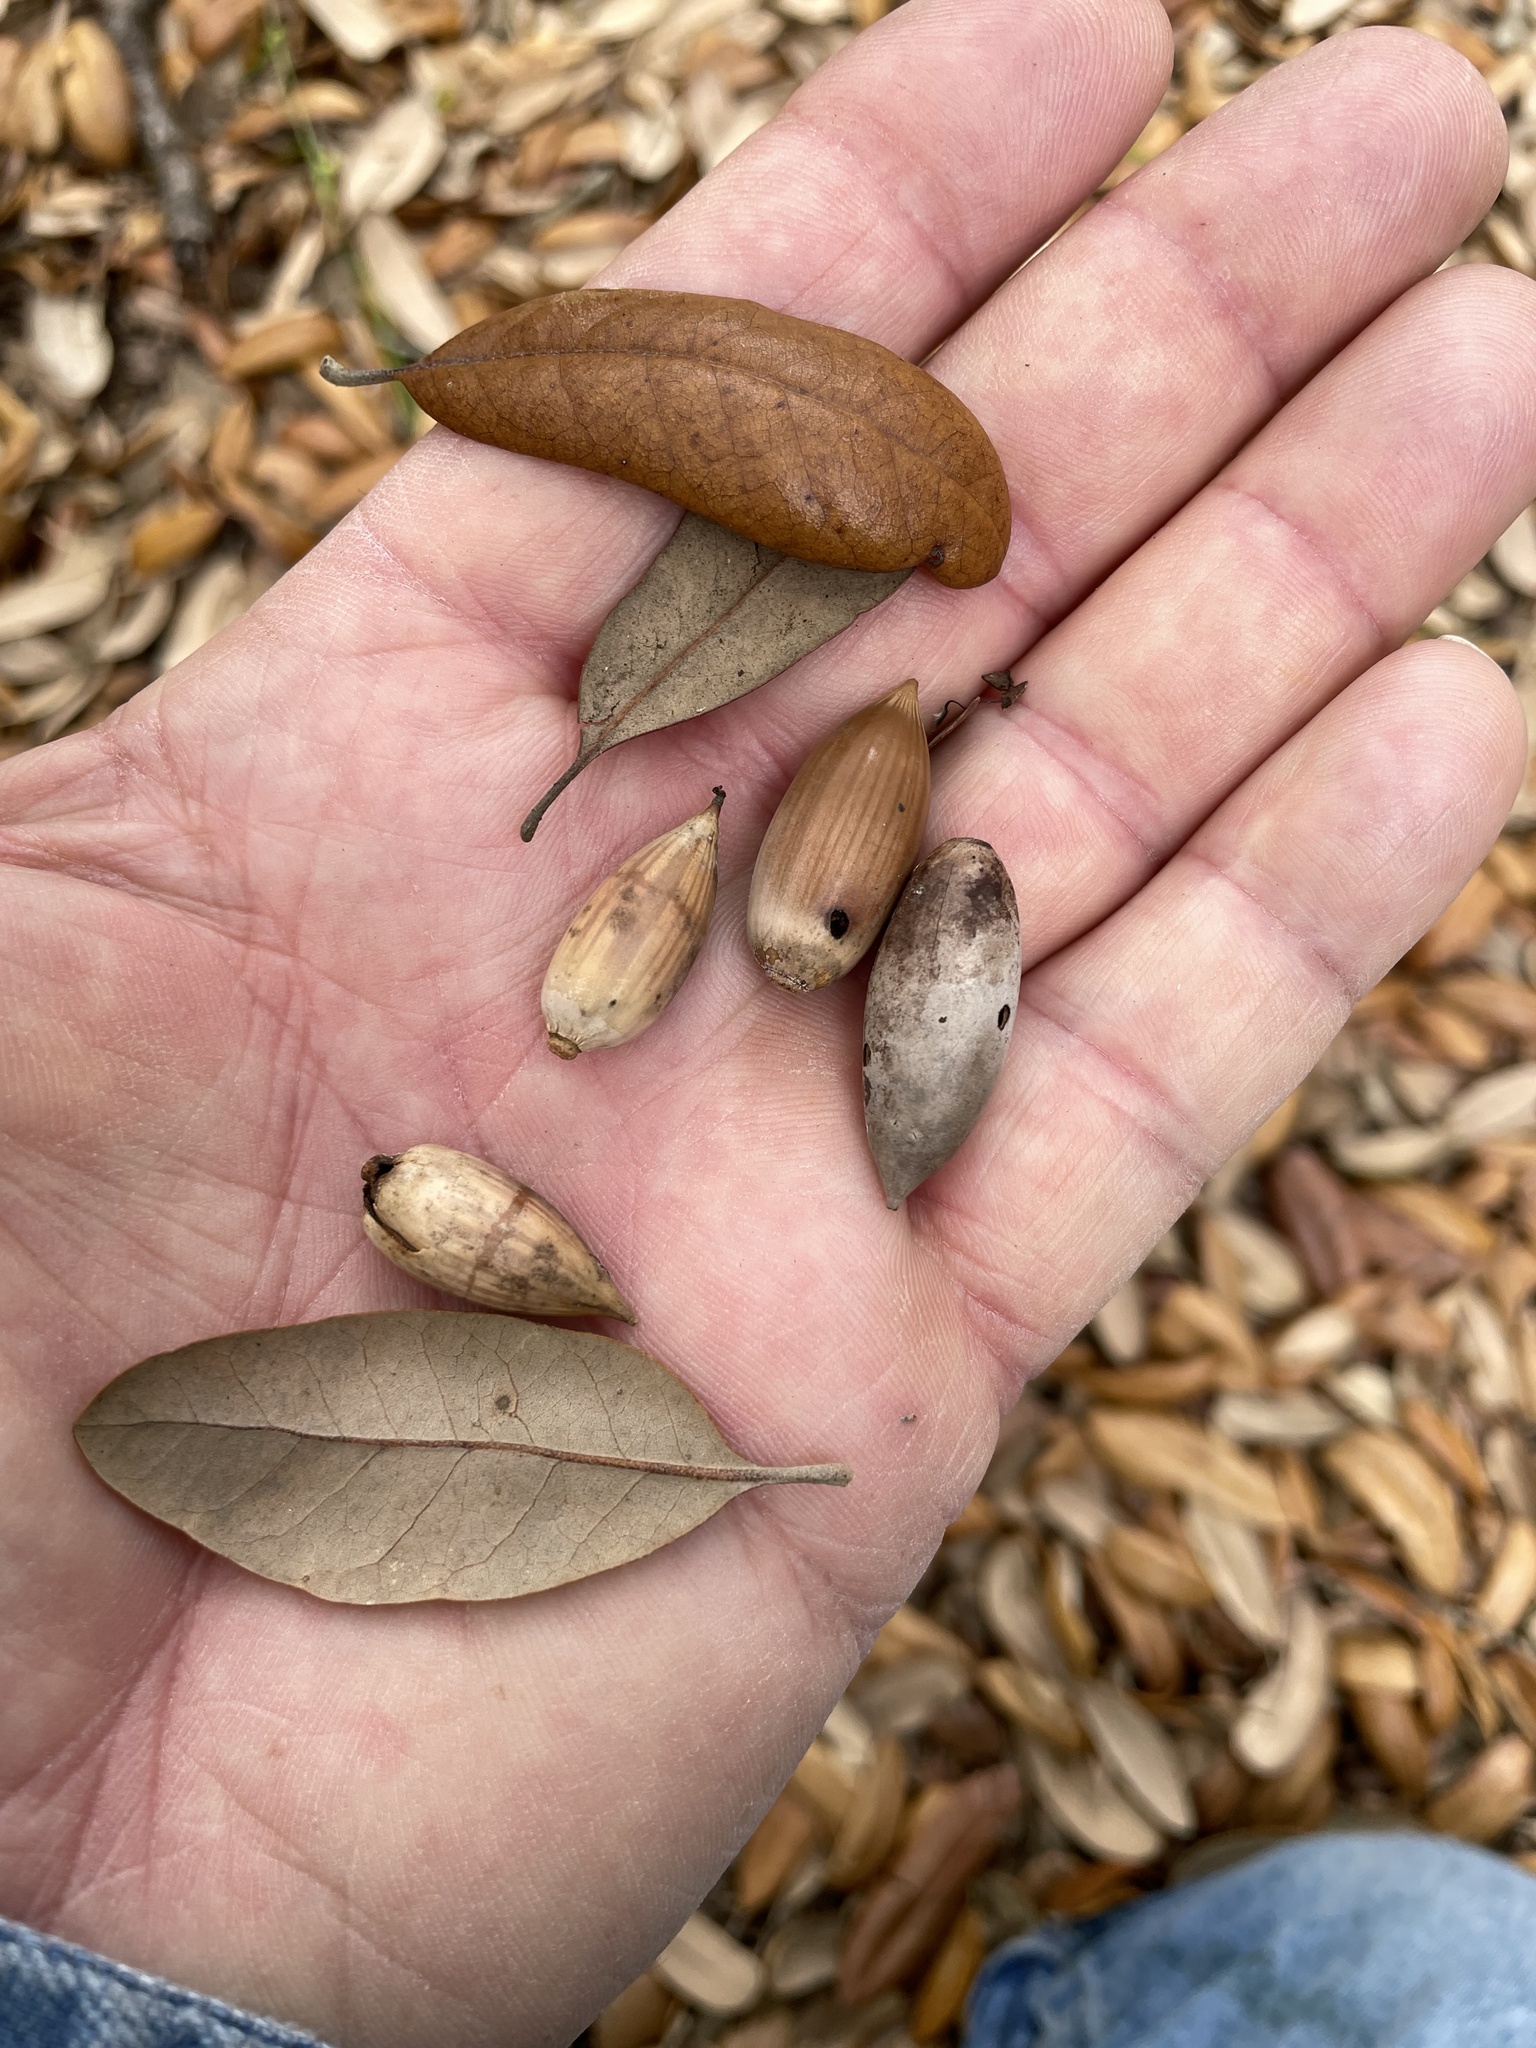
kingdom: Plantae
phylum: Tracheophyta
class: Magnoliopsida
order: Fagales
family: Fagaceae
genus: Quercus
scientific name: Quercus fusiformis
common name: Texas live oak
